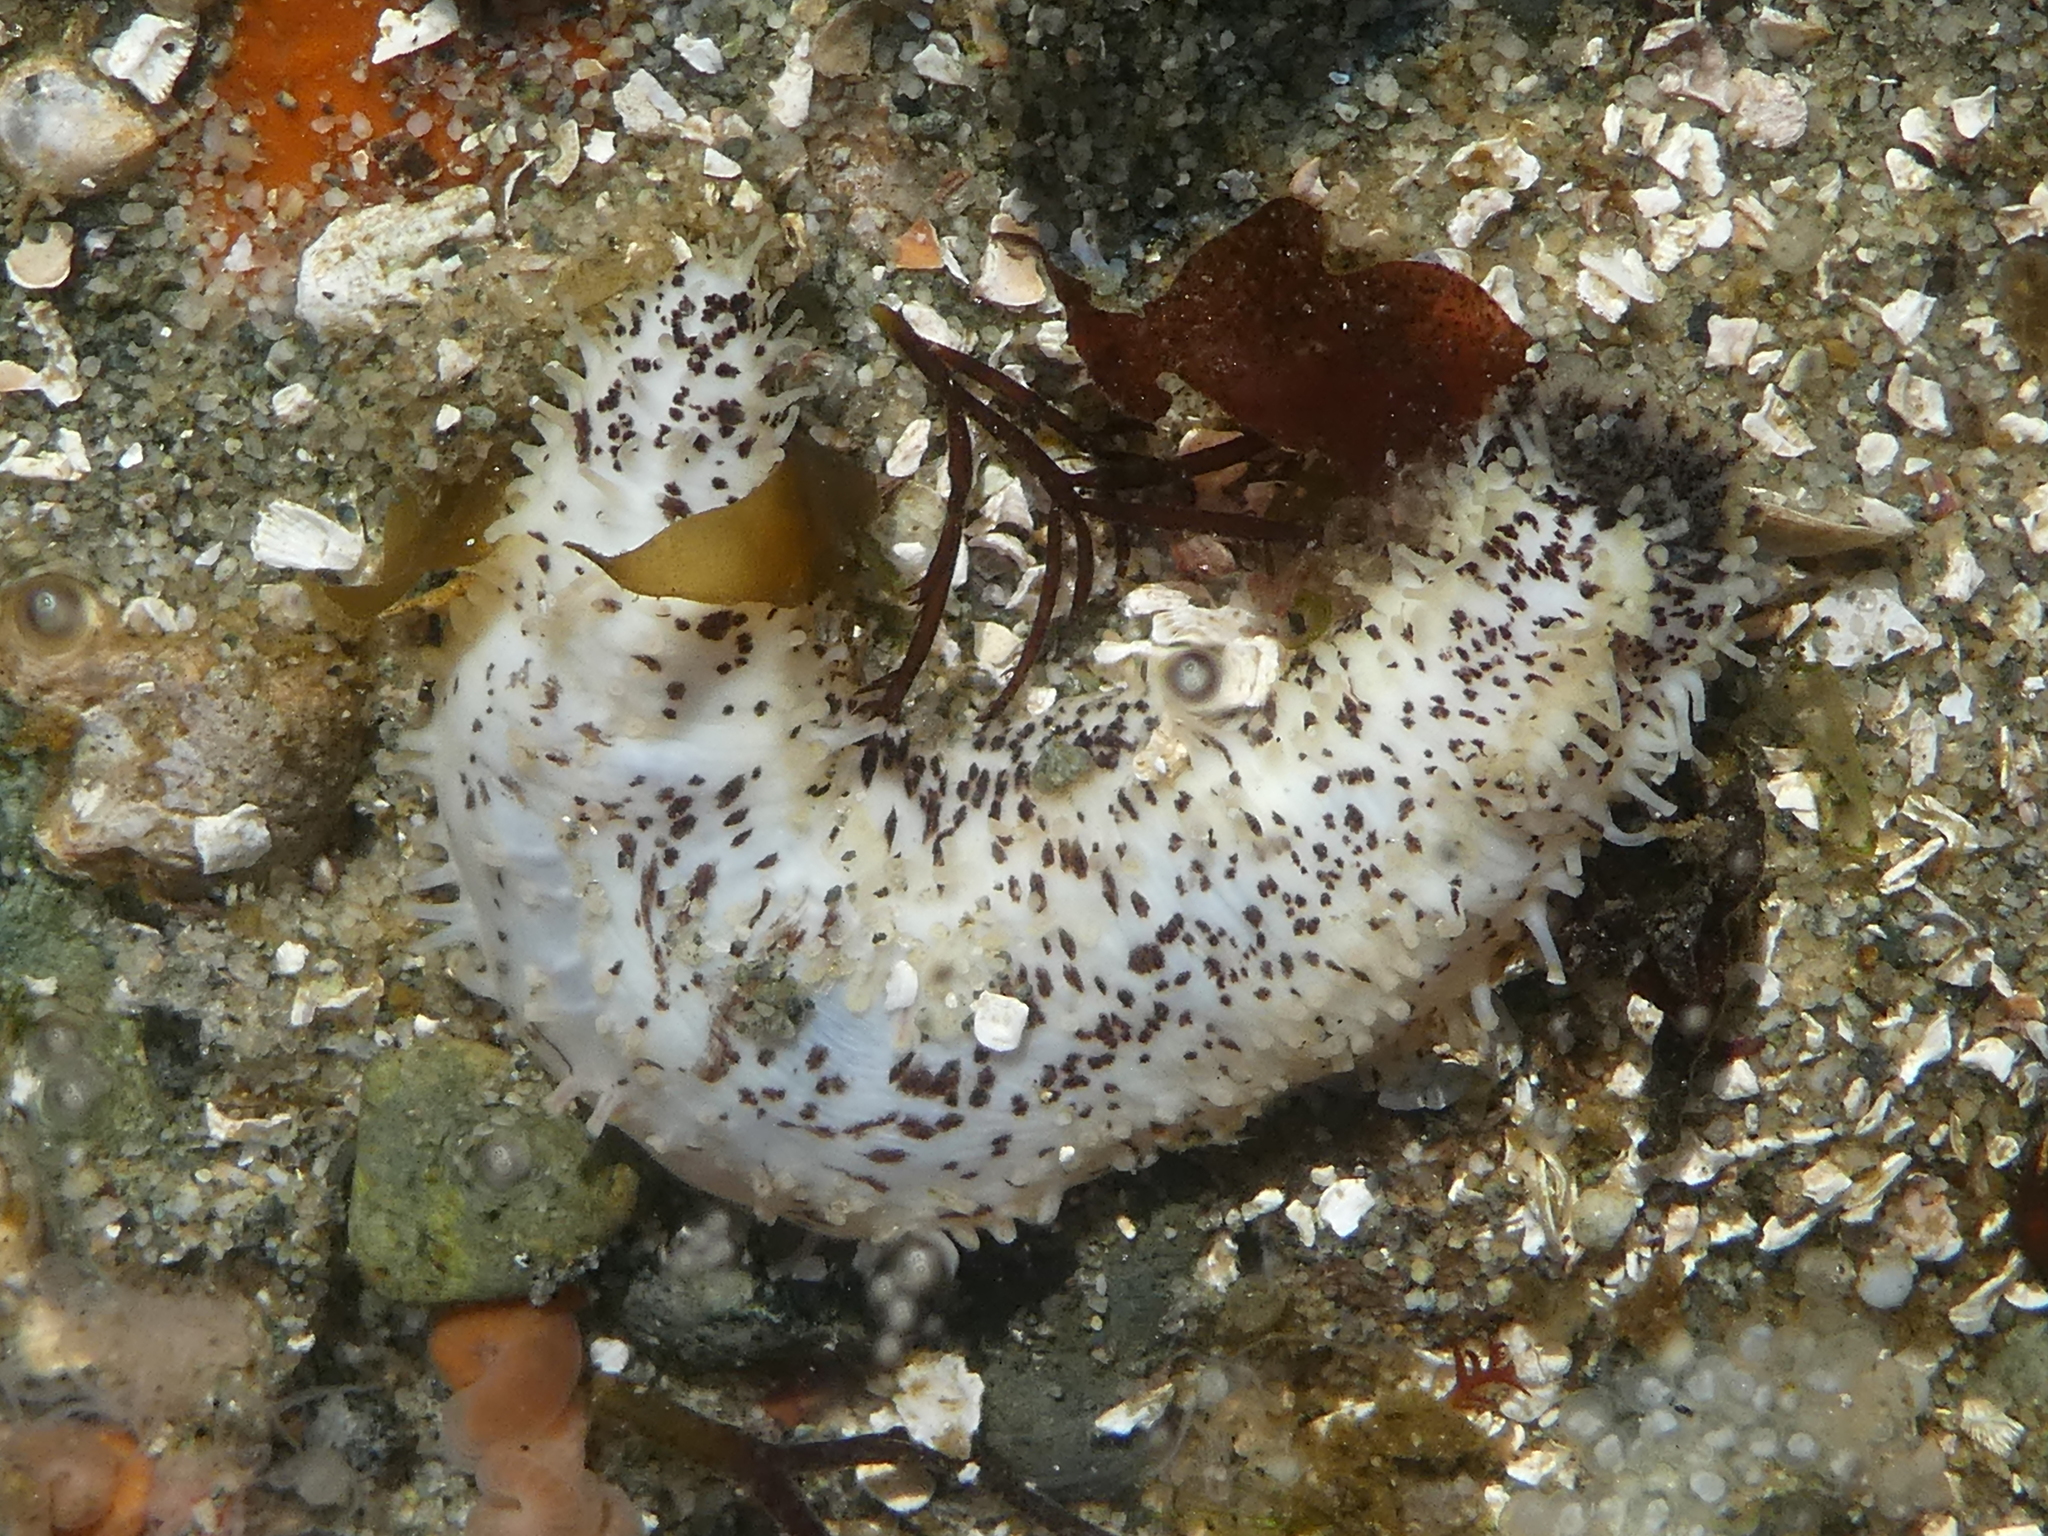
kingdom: Animalia
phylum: Echinodermata
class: Holothuroidea
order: Dendrochirotida
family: Cucumariidae
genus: Cucumaria
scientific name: Cucumaria piperata
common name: Peppered sea cucumber
